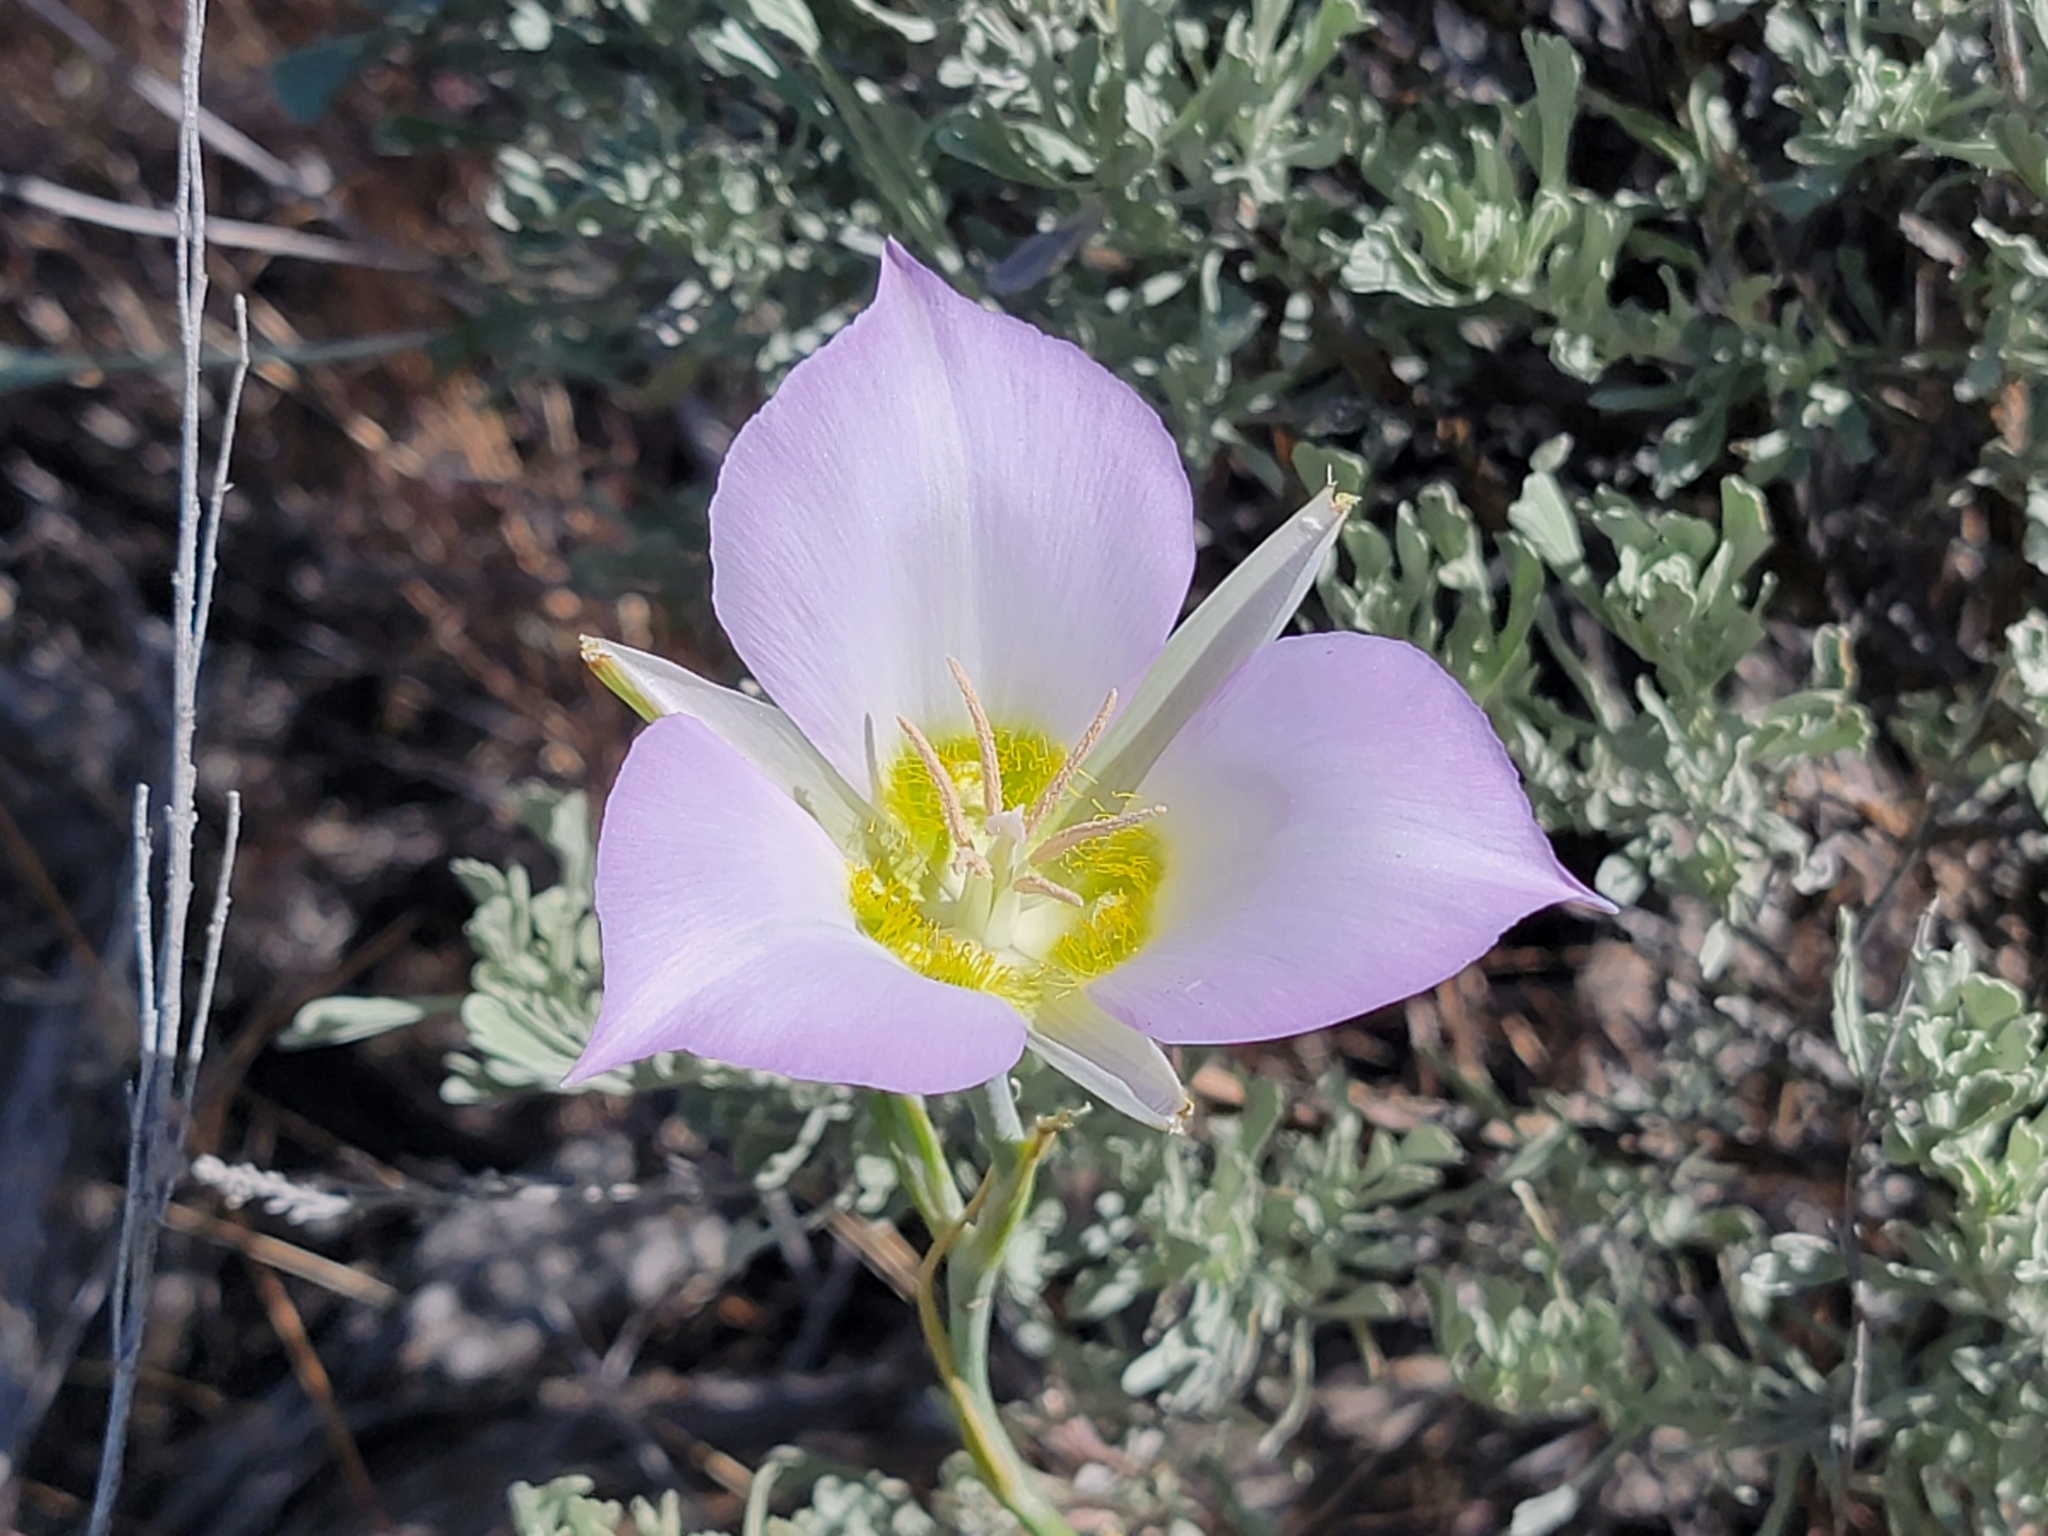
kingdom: Plantae
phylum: Tracheophyta
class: Liliopsida
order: Liliales
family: Liliaceae
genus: Calochortus
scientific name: Calochortus macrocarpus
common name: Green-band mariposa lily
